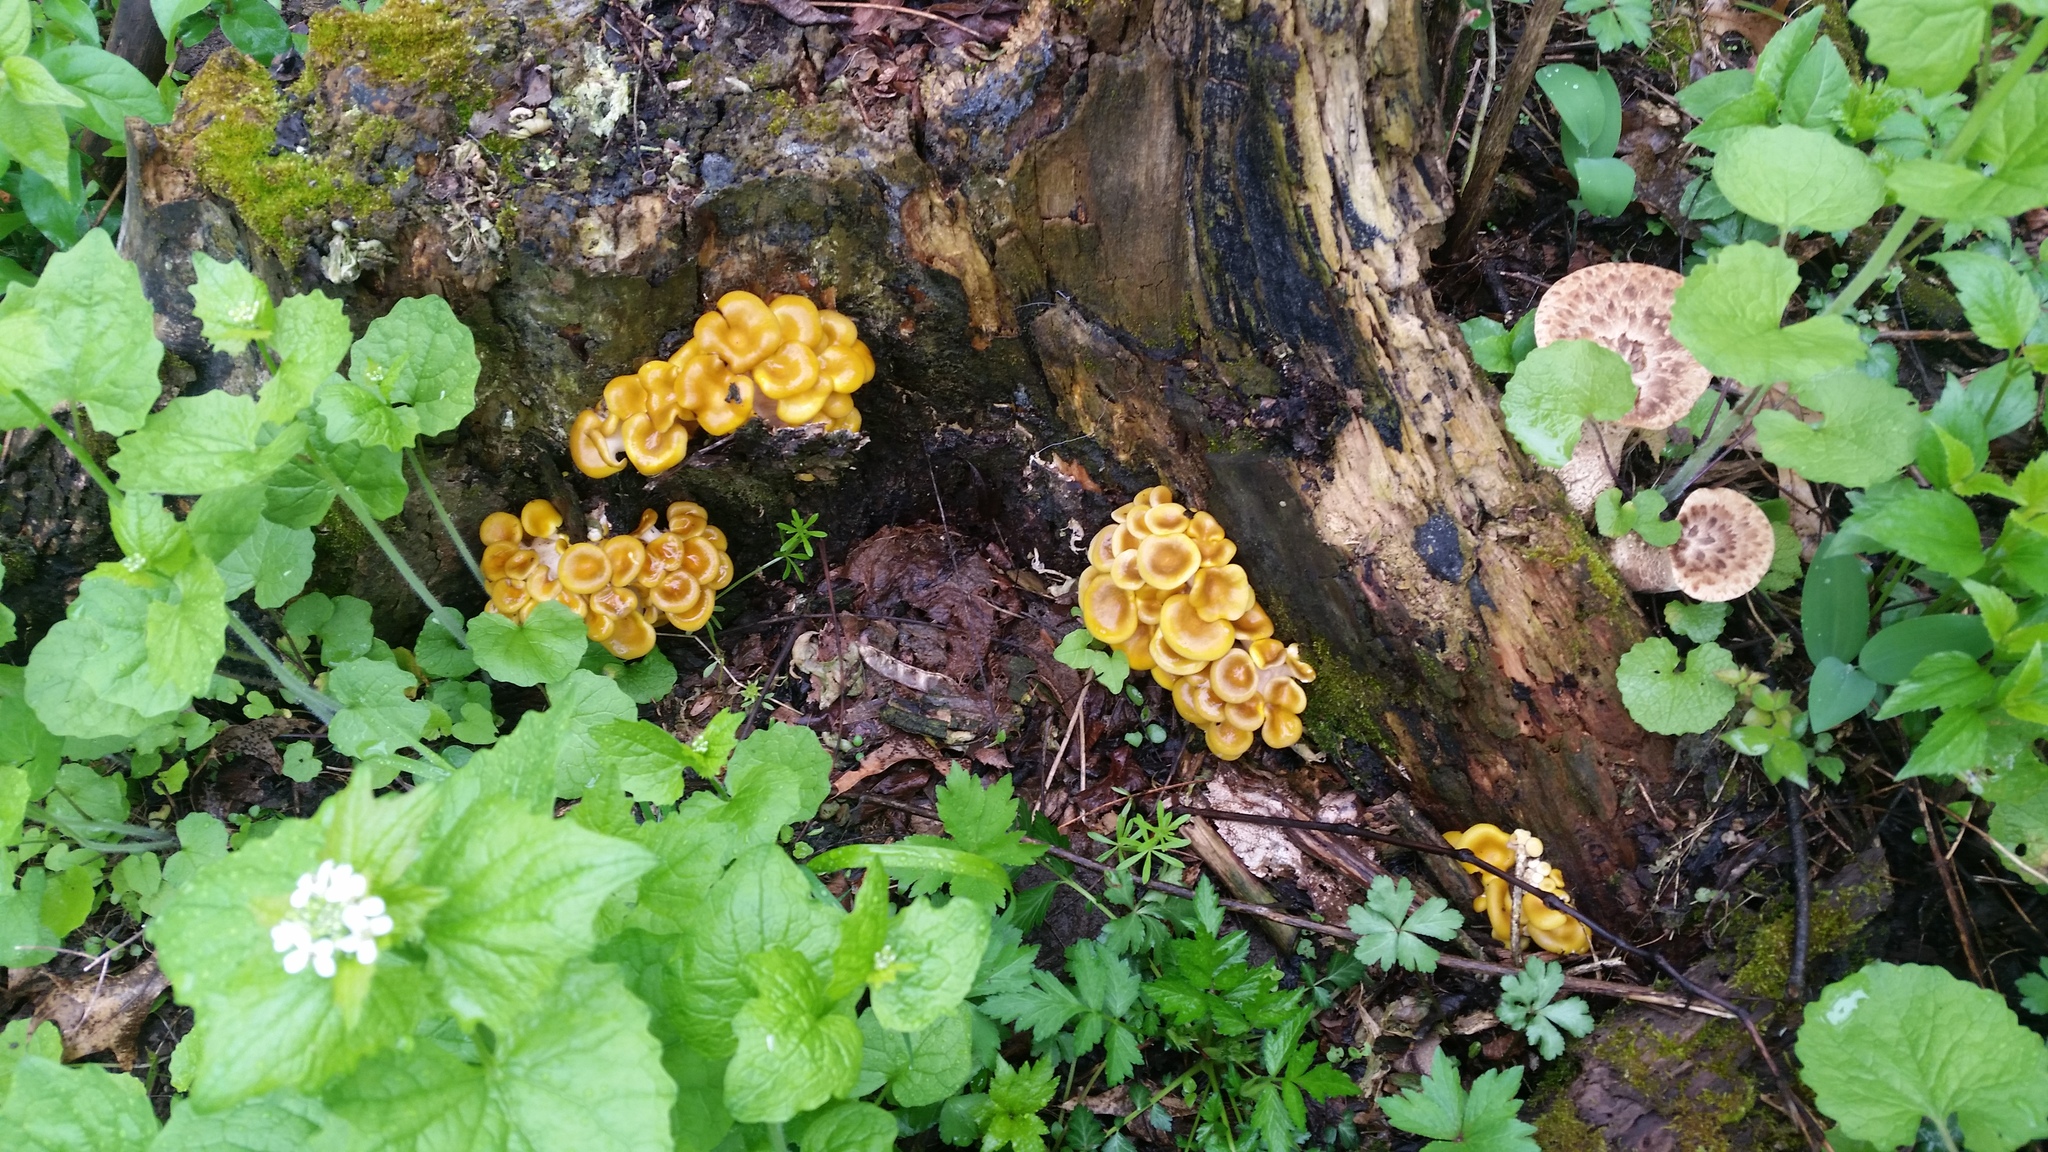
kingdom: Fungi
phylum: Basidiomycota
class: Agaricomycetes
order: Agaricales
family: Pleurotaceae
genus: Pleurotus
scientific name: Pleurotus citrinopileatus
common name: Golden oyster mushroom
